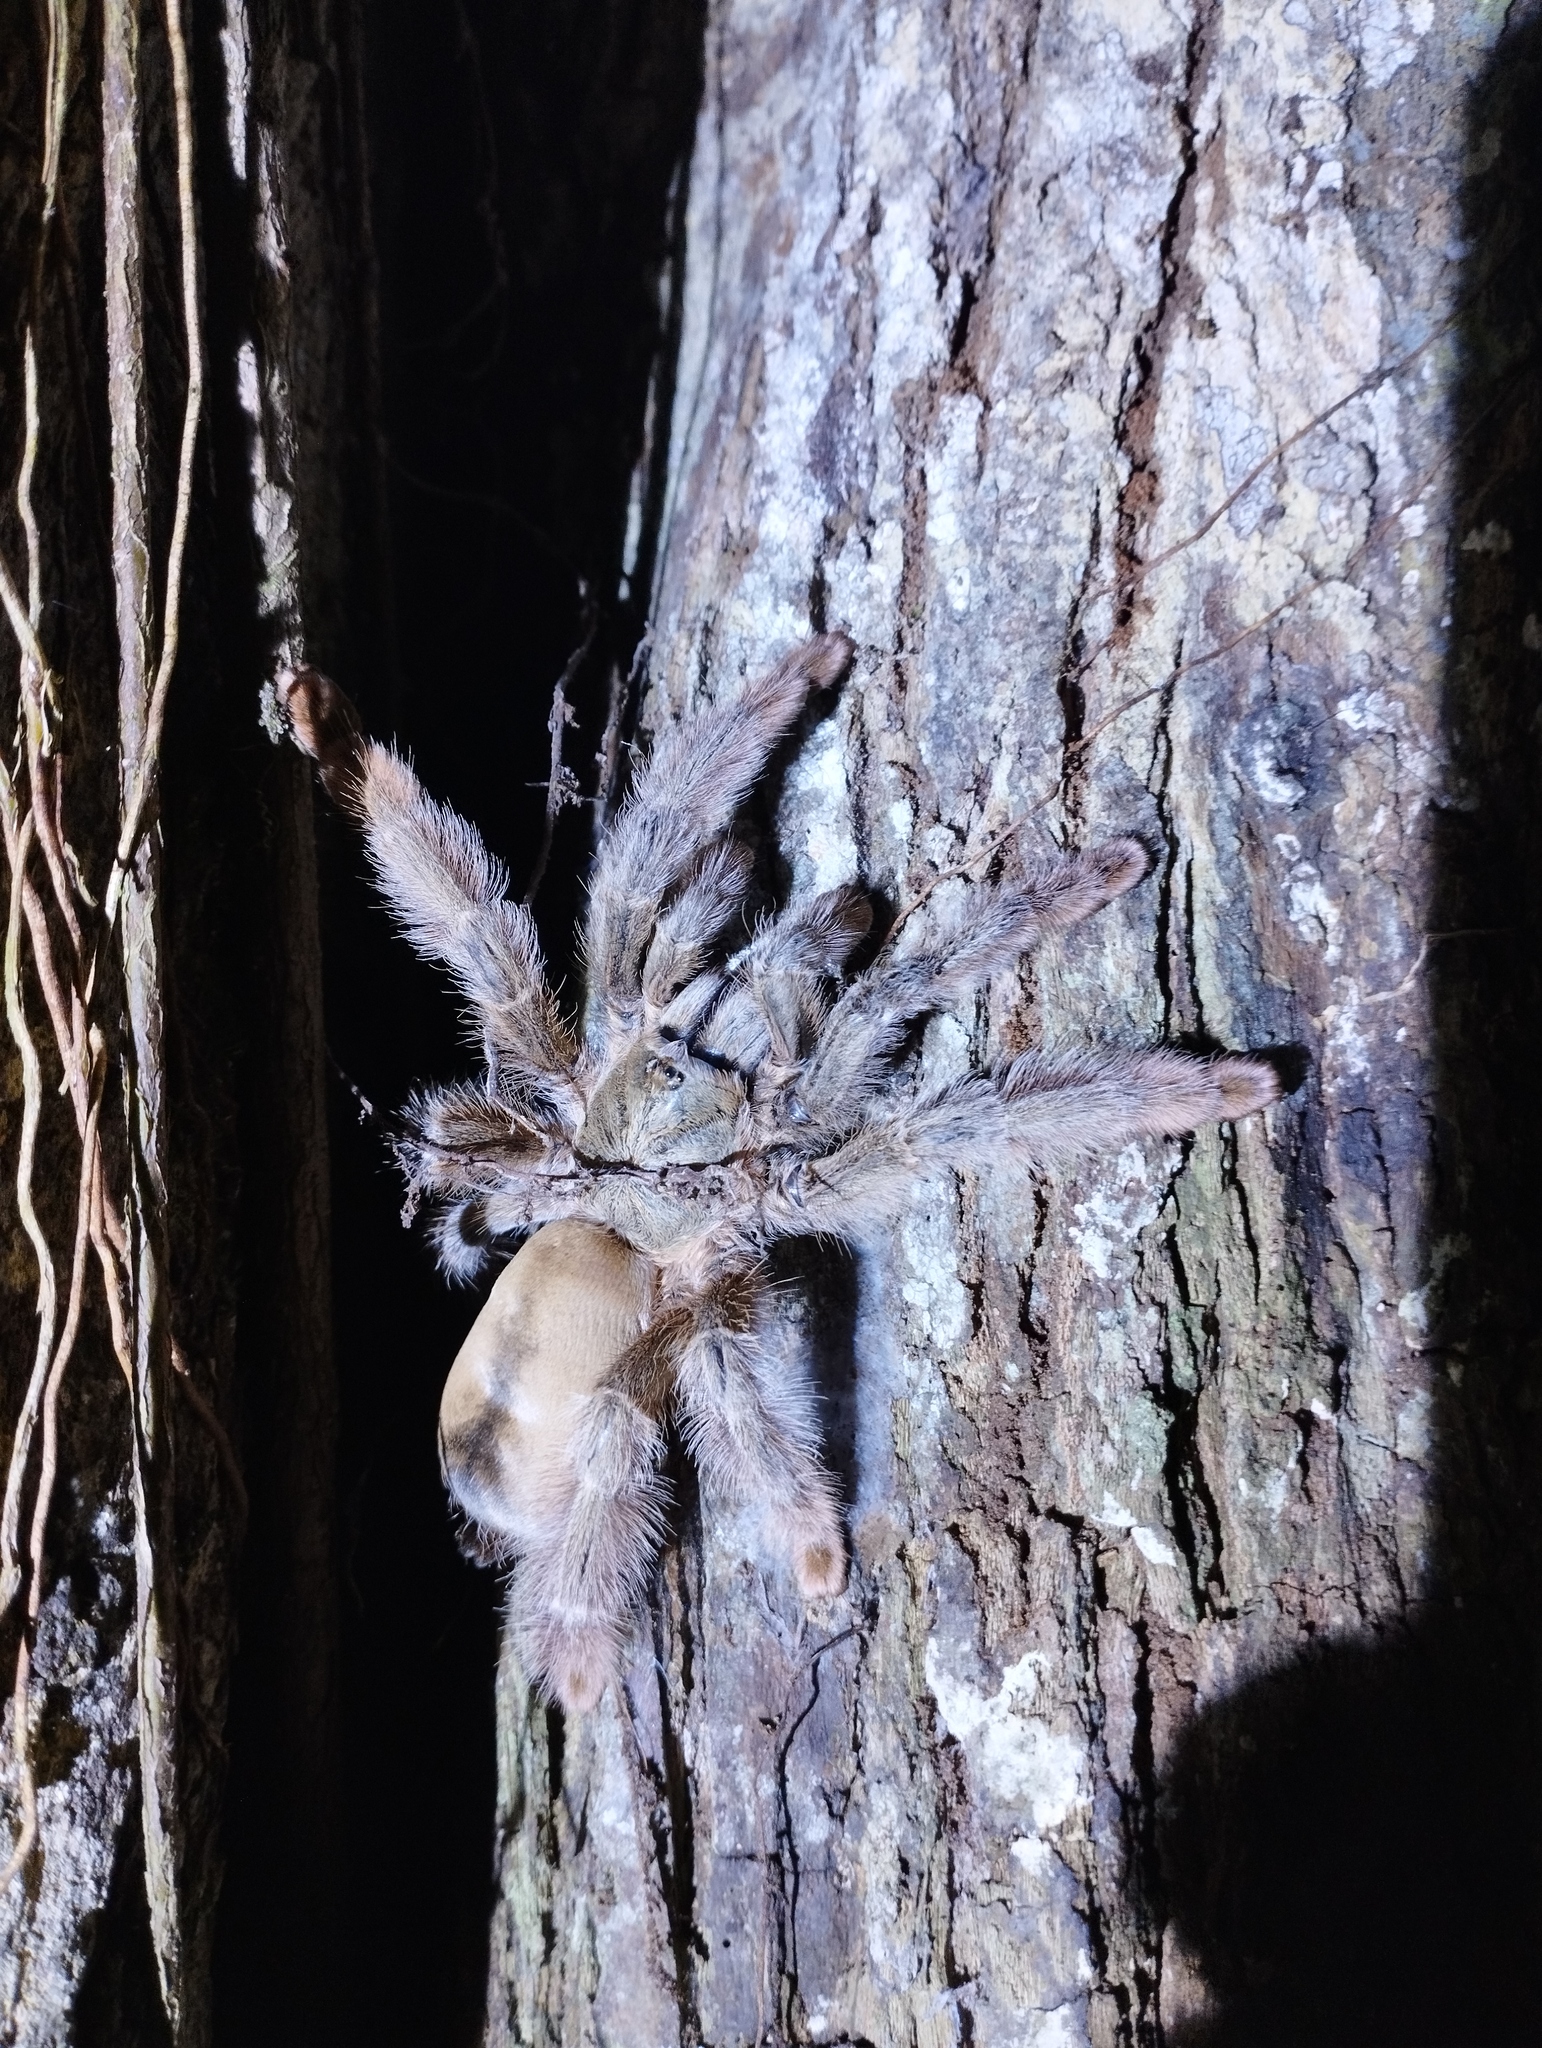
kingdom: Animalia
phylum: Arthropoda
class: Arachnida
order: Araneae
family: Theraphosidae
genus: Psalmopoeus
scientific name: Psalmopoeus pulcher
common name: Tarantula spiders
